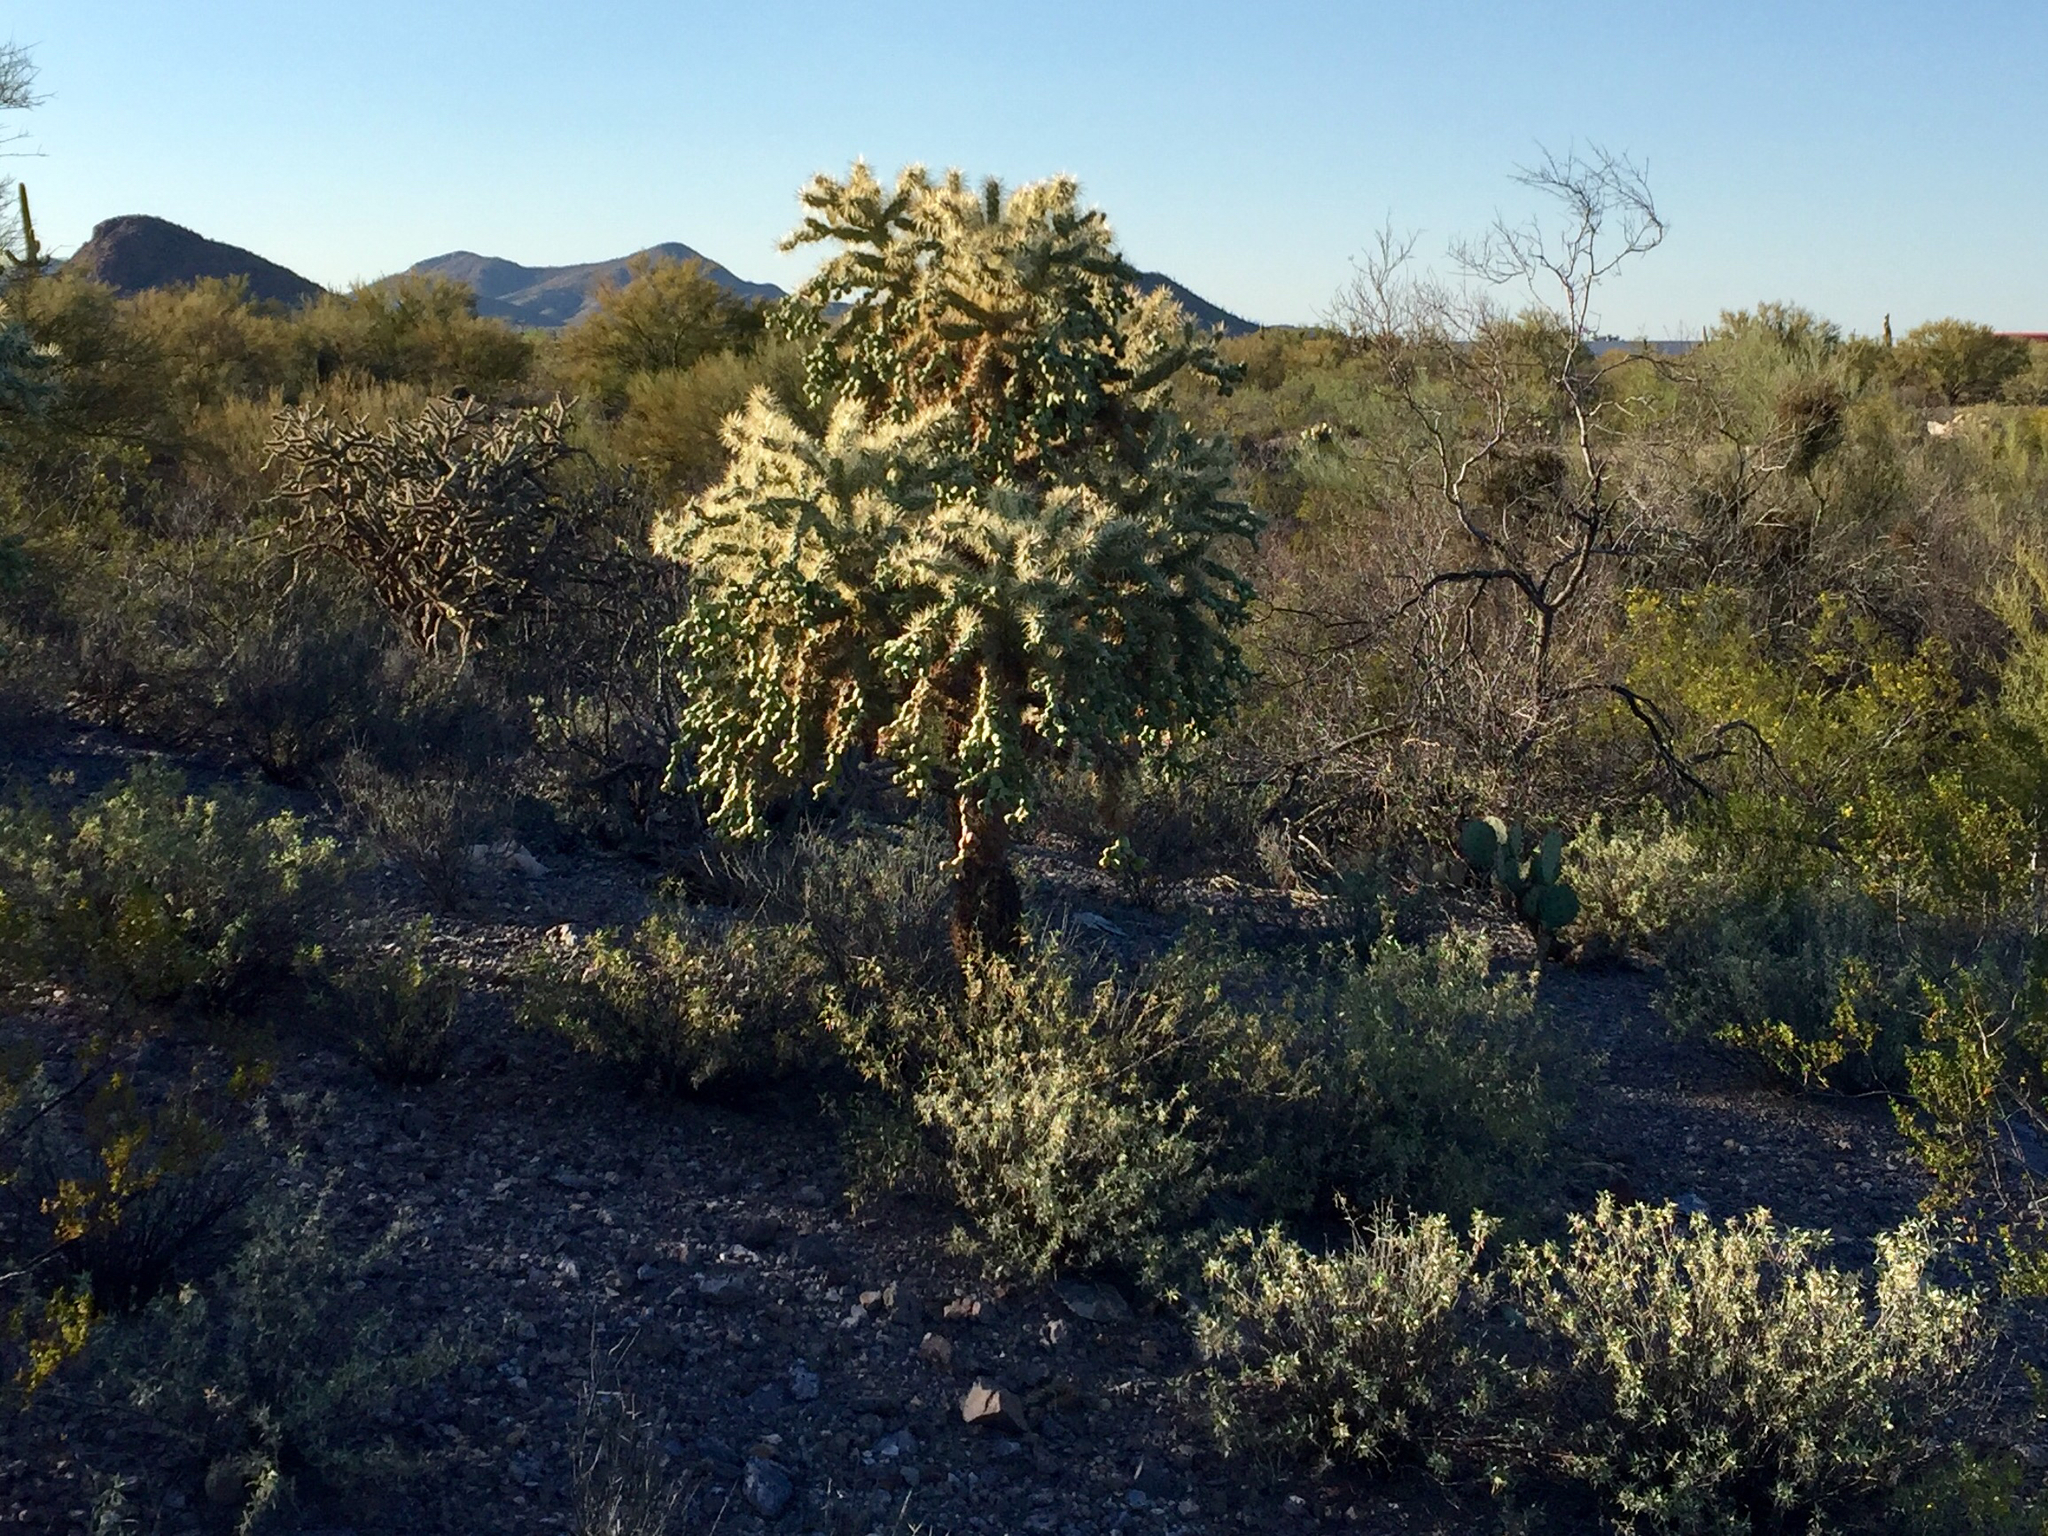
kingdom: Plantae
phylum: Tracheophyta
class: Magnoliopsida
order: Caryophyllales
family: Cactaceae
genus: Cylindropuntia
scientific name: Cylindropuntia fulgida
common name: Jumping cholla
